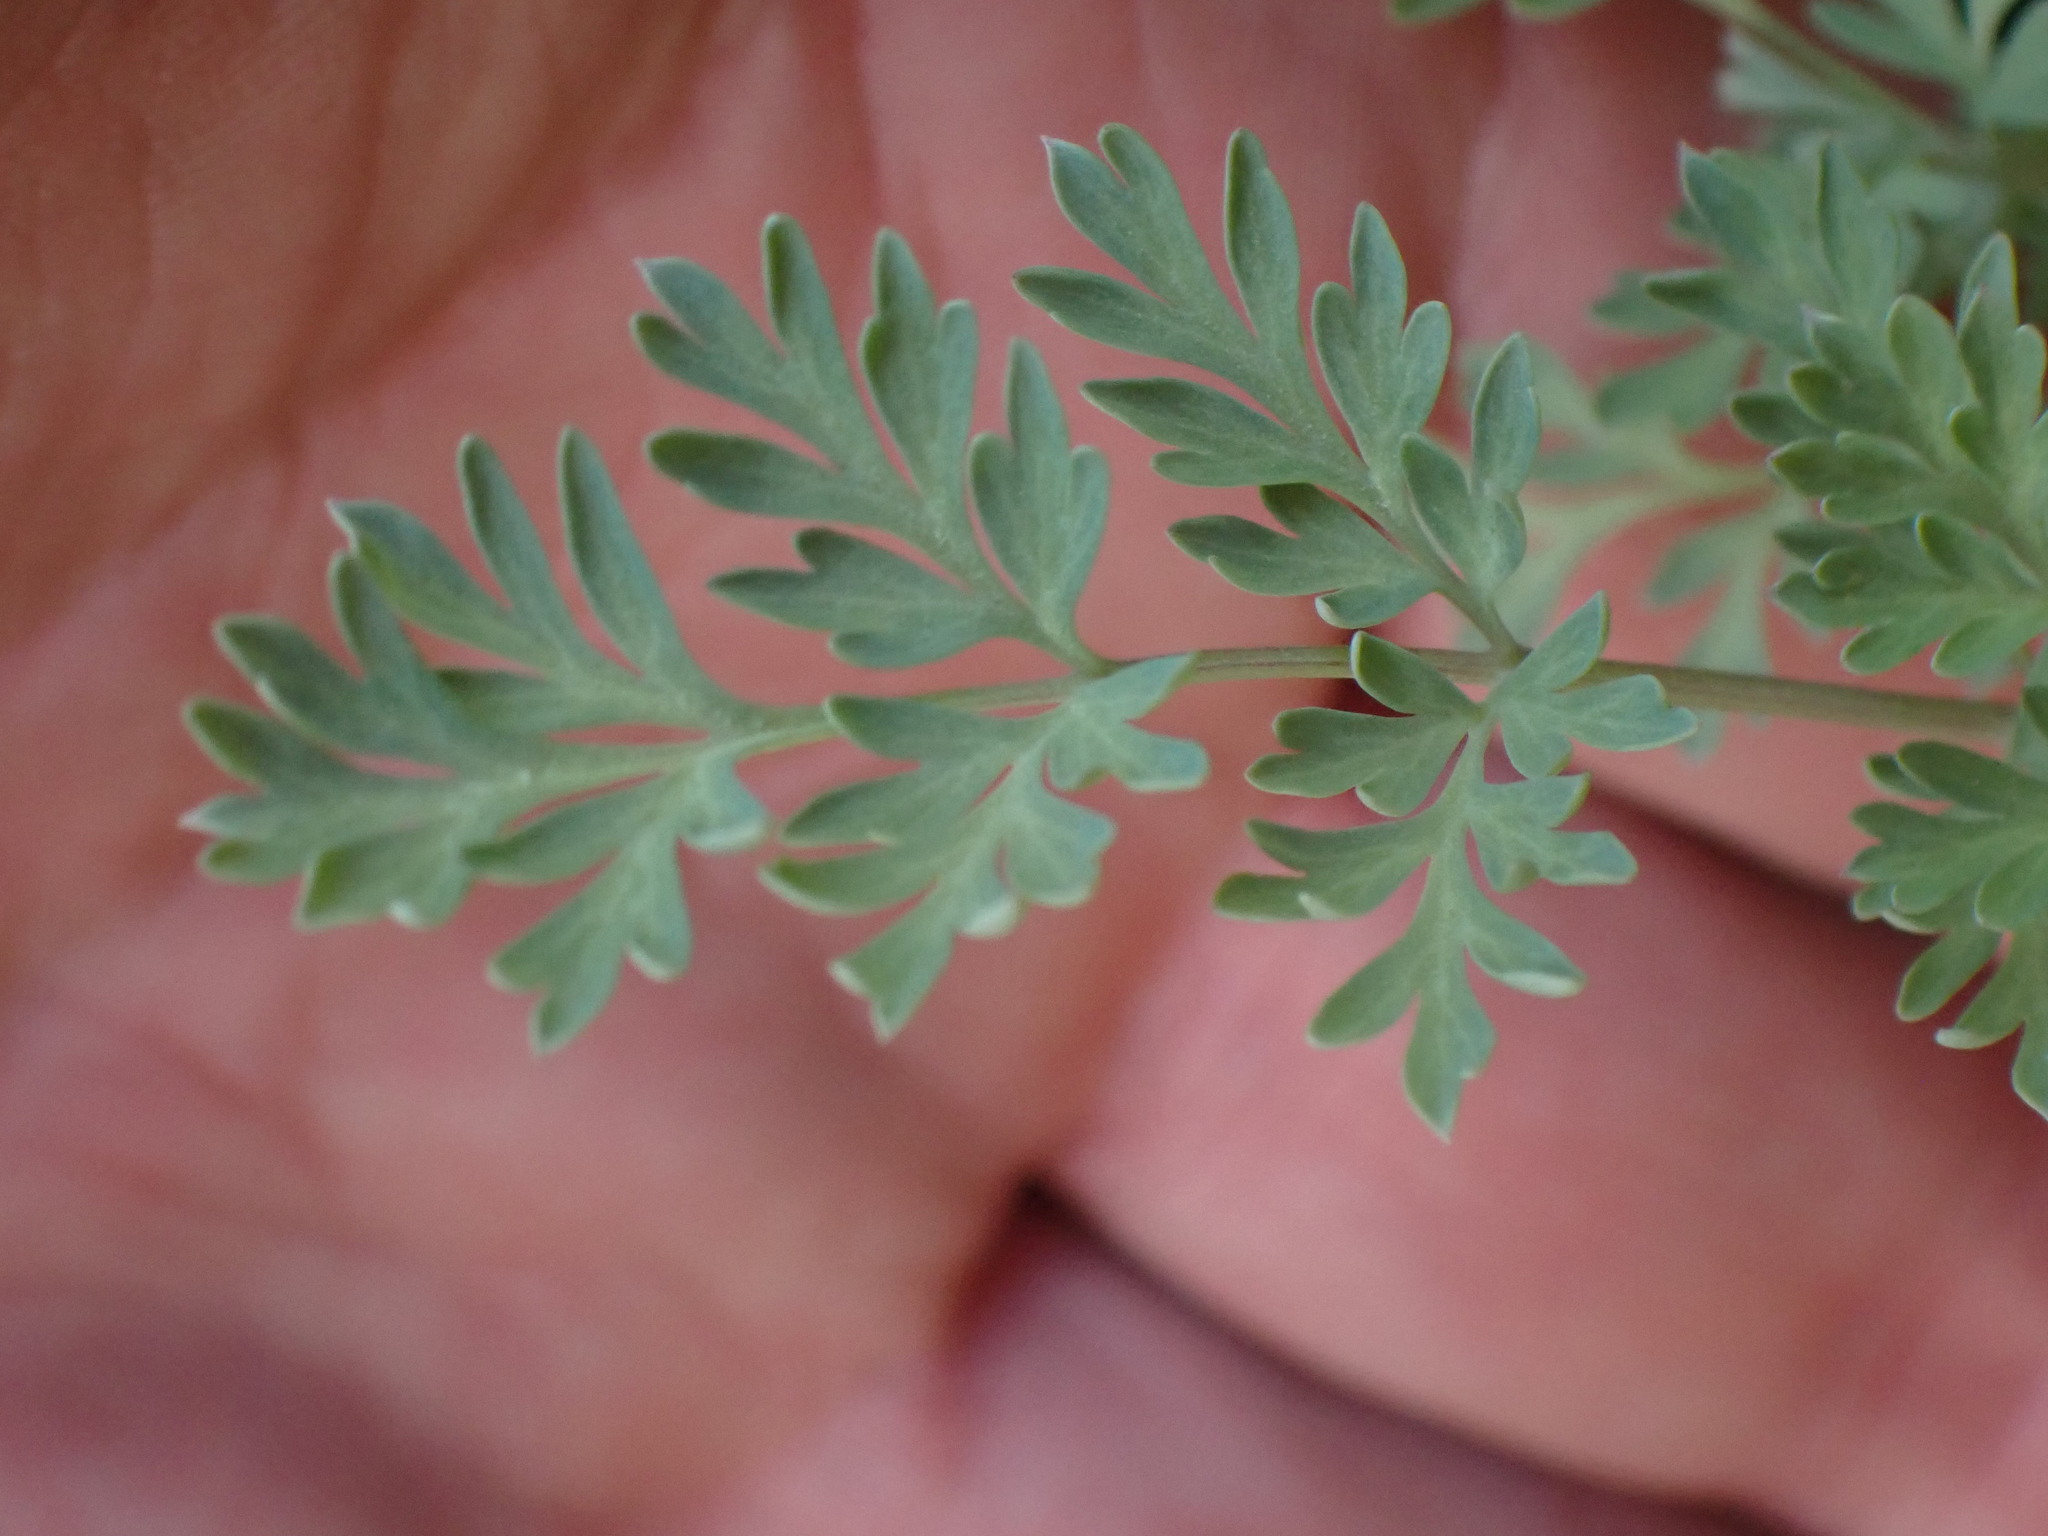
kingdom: Plantae
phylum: Tracheophyta
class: Magnoliopsida
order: Ranunculales
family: Papaveraceae
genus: Corydalis
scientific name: Corydalis aurea
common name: Golden corydalis
